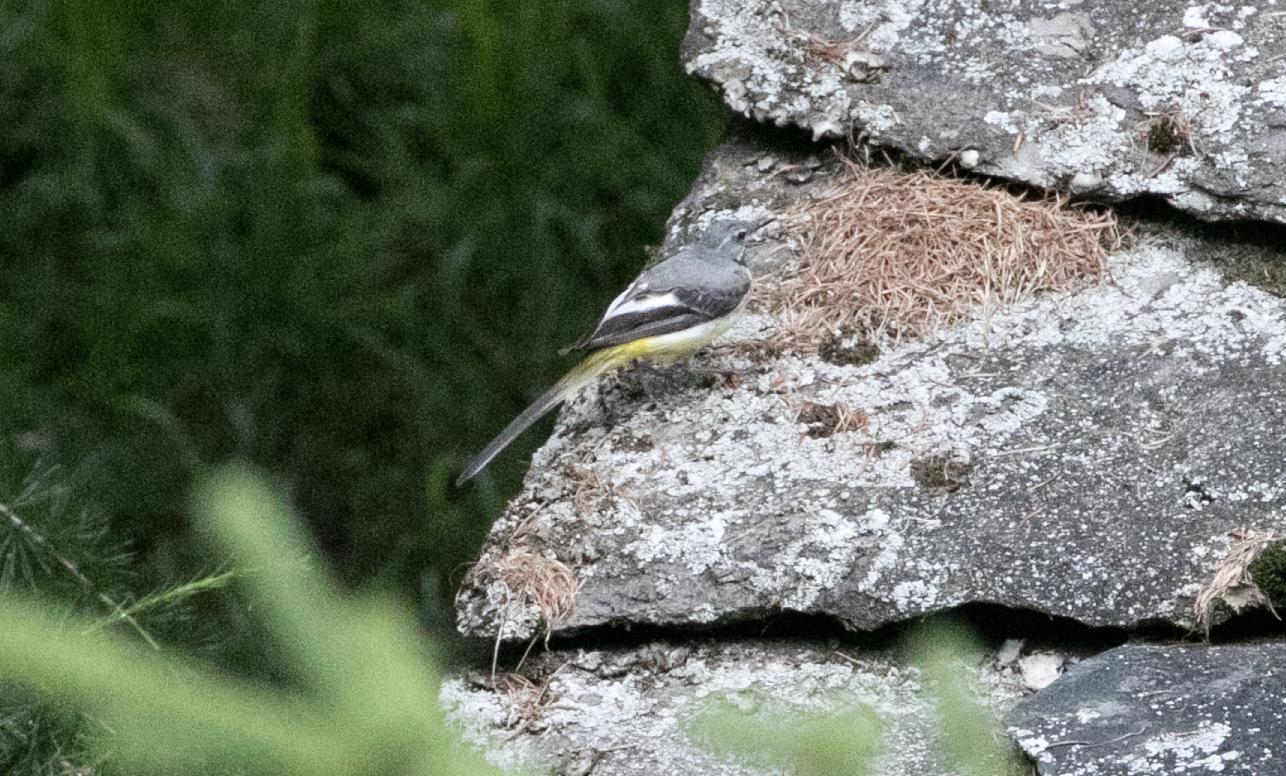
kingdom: Animalia
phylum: Chordata
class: Aves
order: Passeriformes
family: Motacillidae
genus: Motacilla
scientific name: Motacilla cinerea
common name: Grey wagtail
